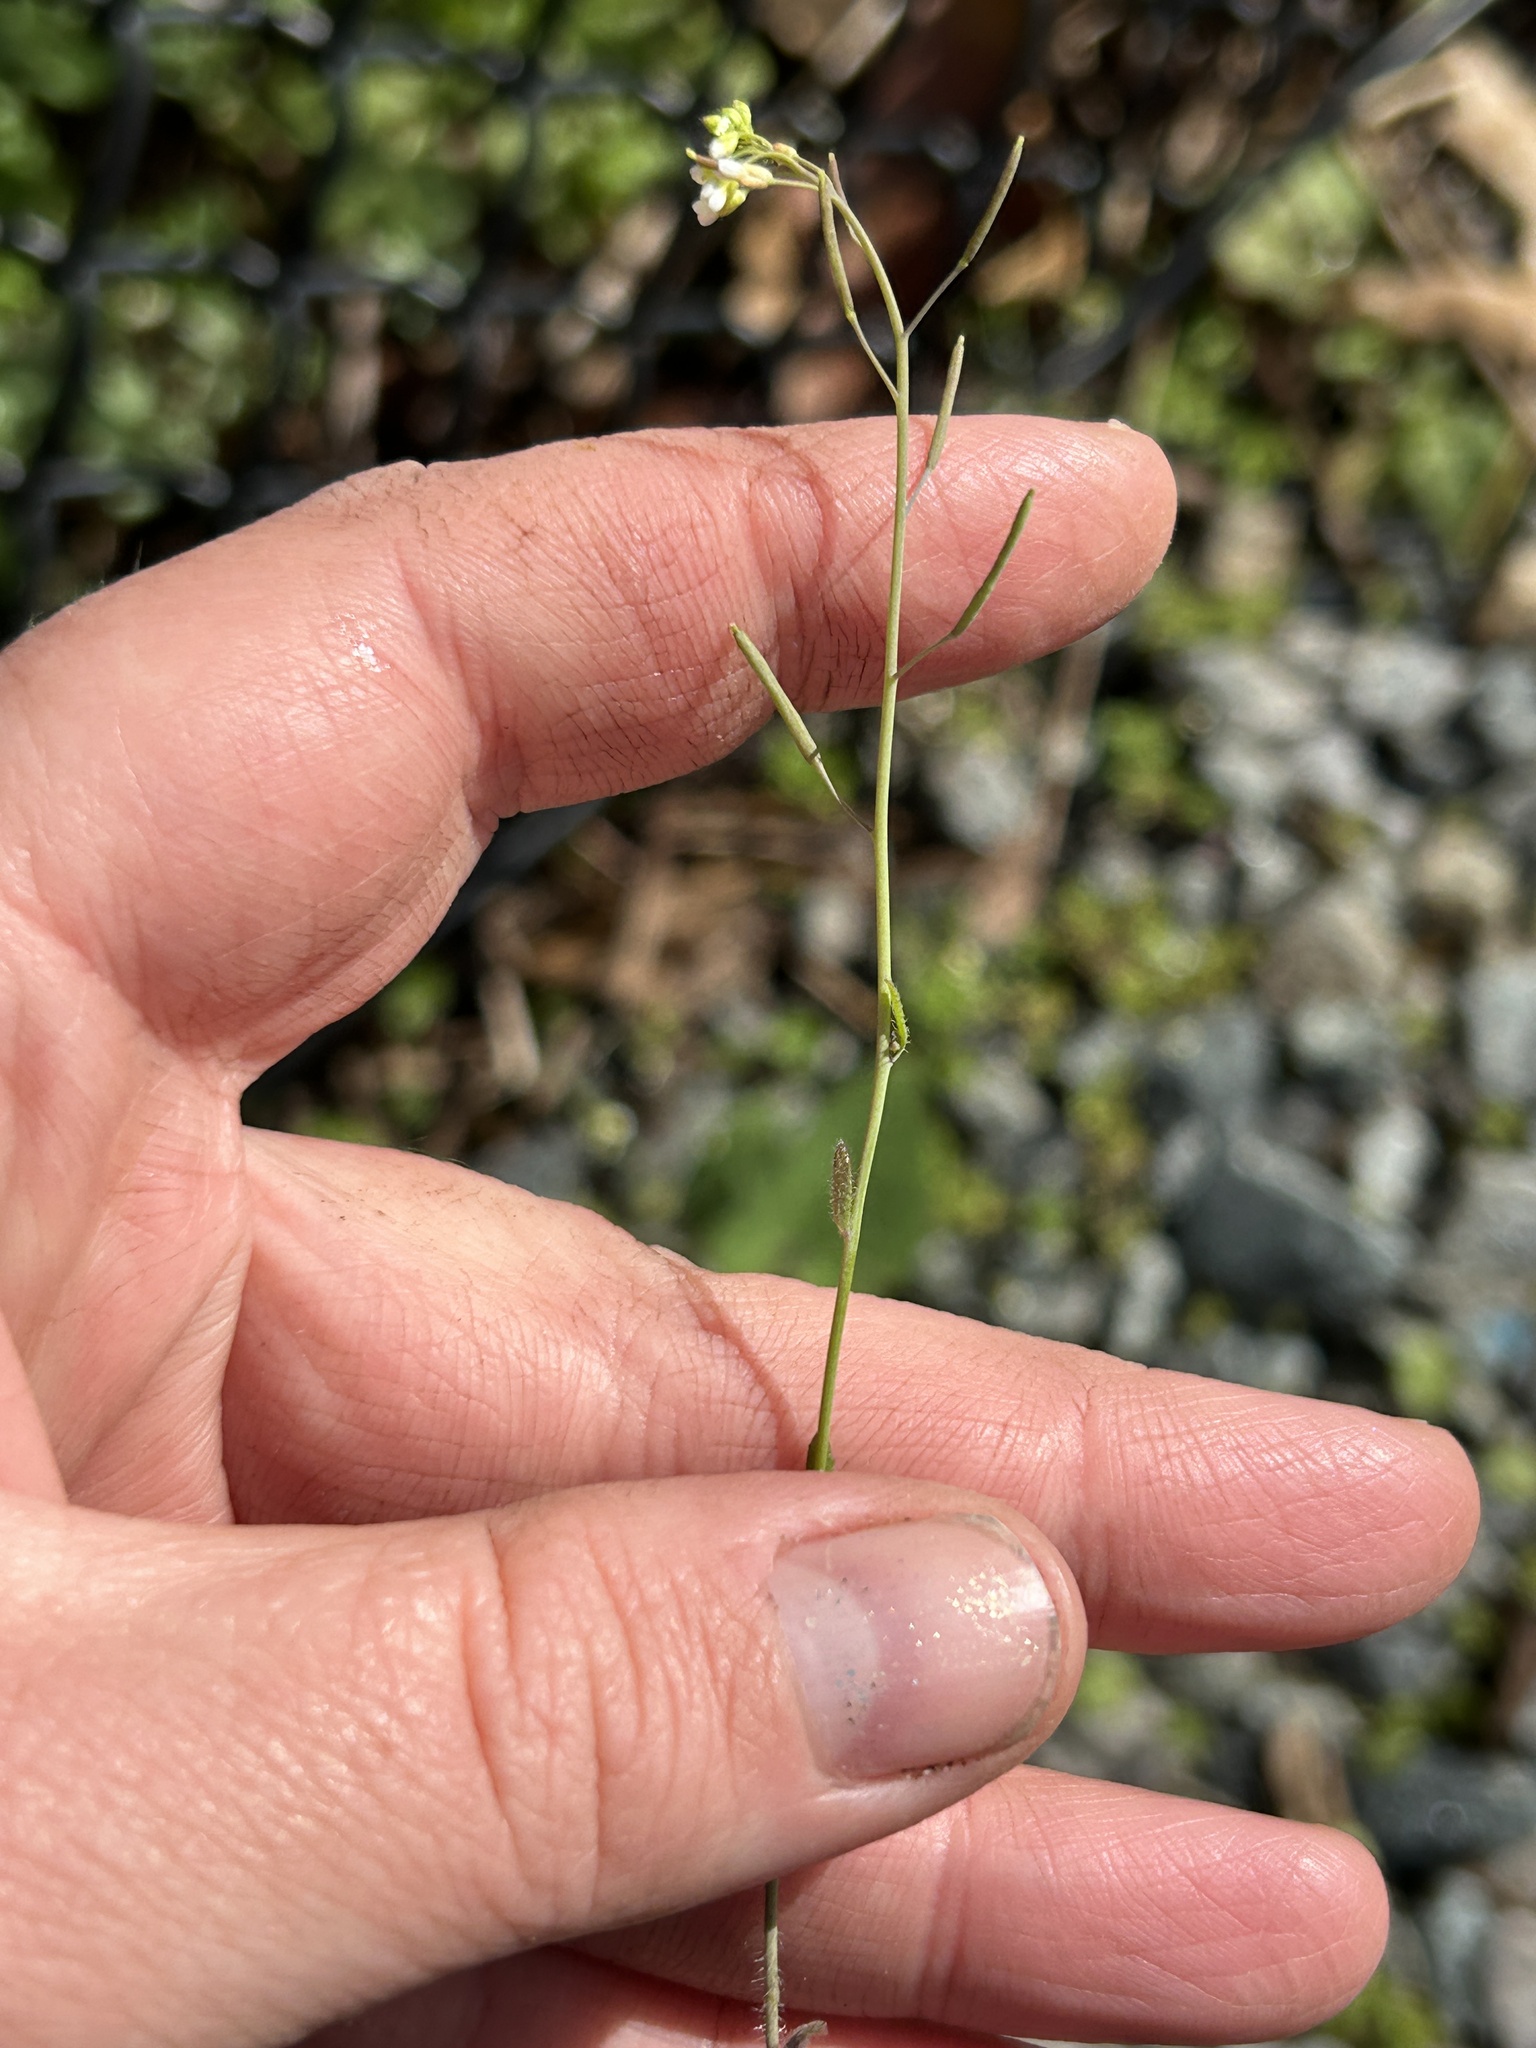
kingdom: Plantae
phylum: Tracheophyta
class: Magnoliopsida
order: Brassicales
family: Brassicaceae
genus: Arabidopsis
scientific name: Arabidopsis thaliana
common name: Thale cress
